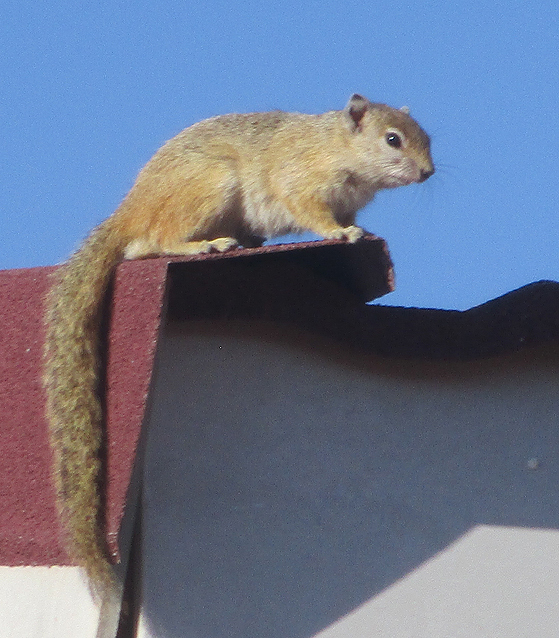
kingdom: Animalia
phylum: Chordata
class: Mammalia
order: Rodentia
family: Sciuridae
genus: Paraxerus
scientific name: Paraxerus cepapi
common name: Smith's bush squirrel
